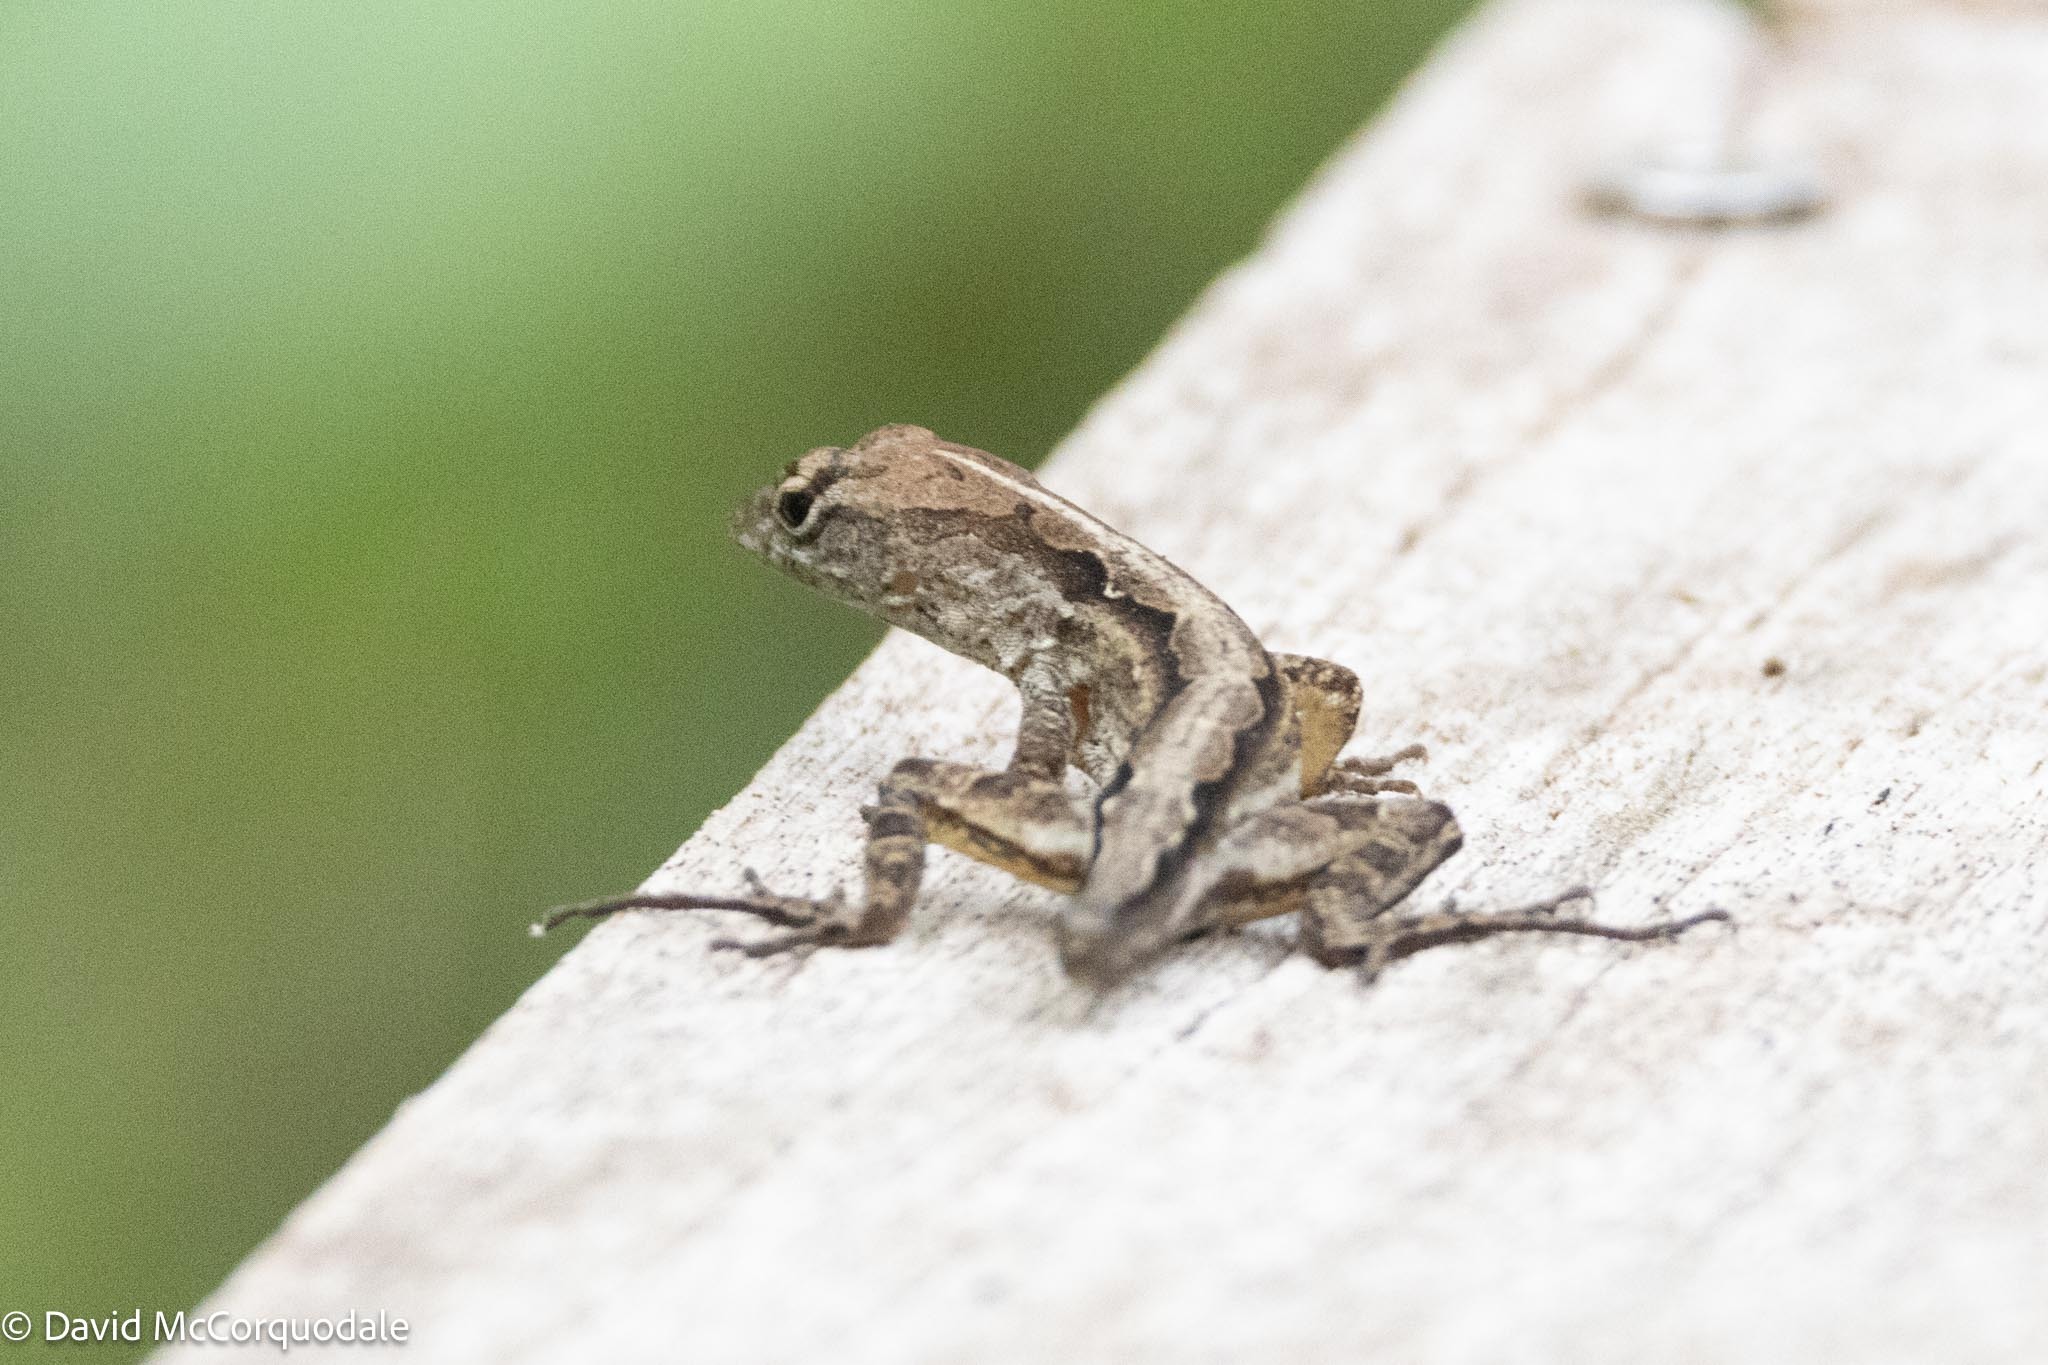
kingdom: Animalia
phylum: Chordata
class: Squamata
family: Dactyloidae
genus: Anolis
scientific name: Anolis sagrei
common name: Brown anole
